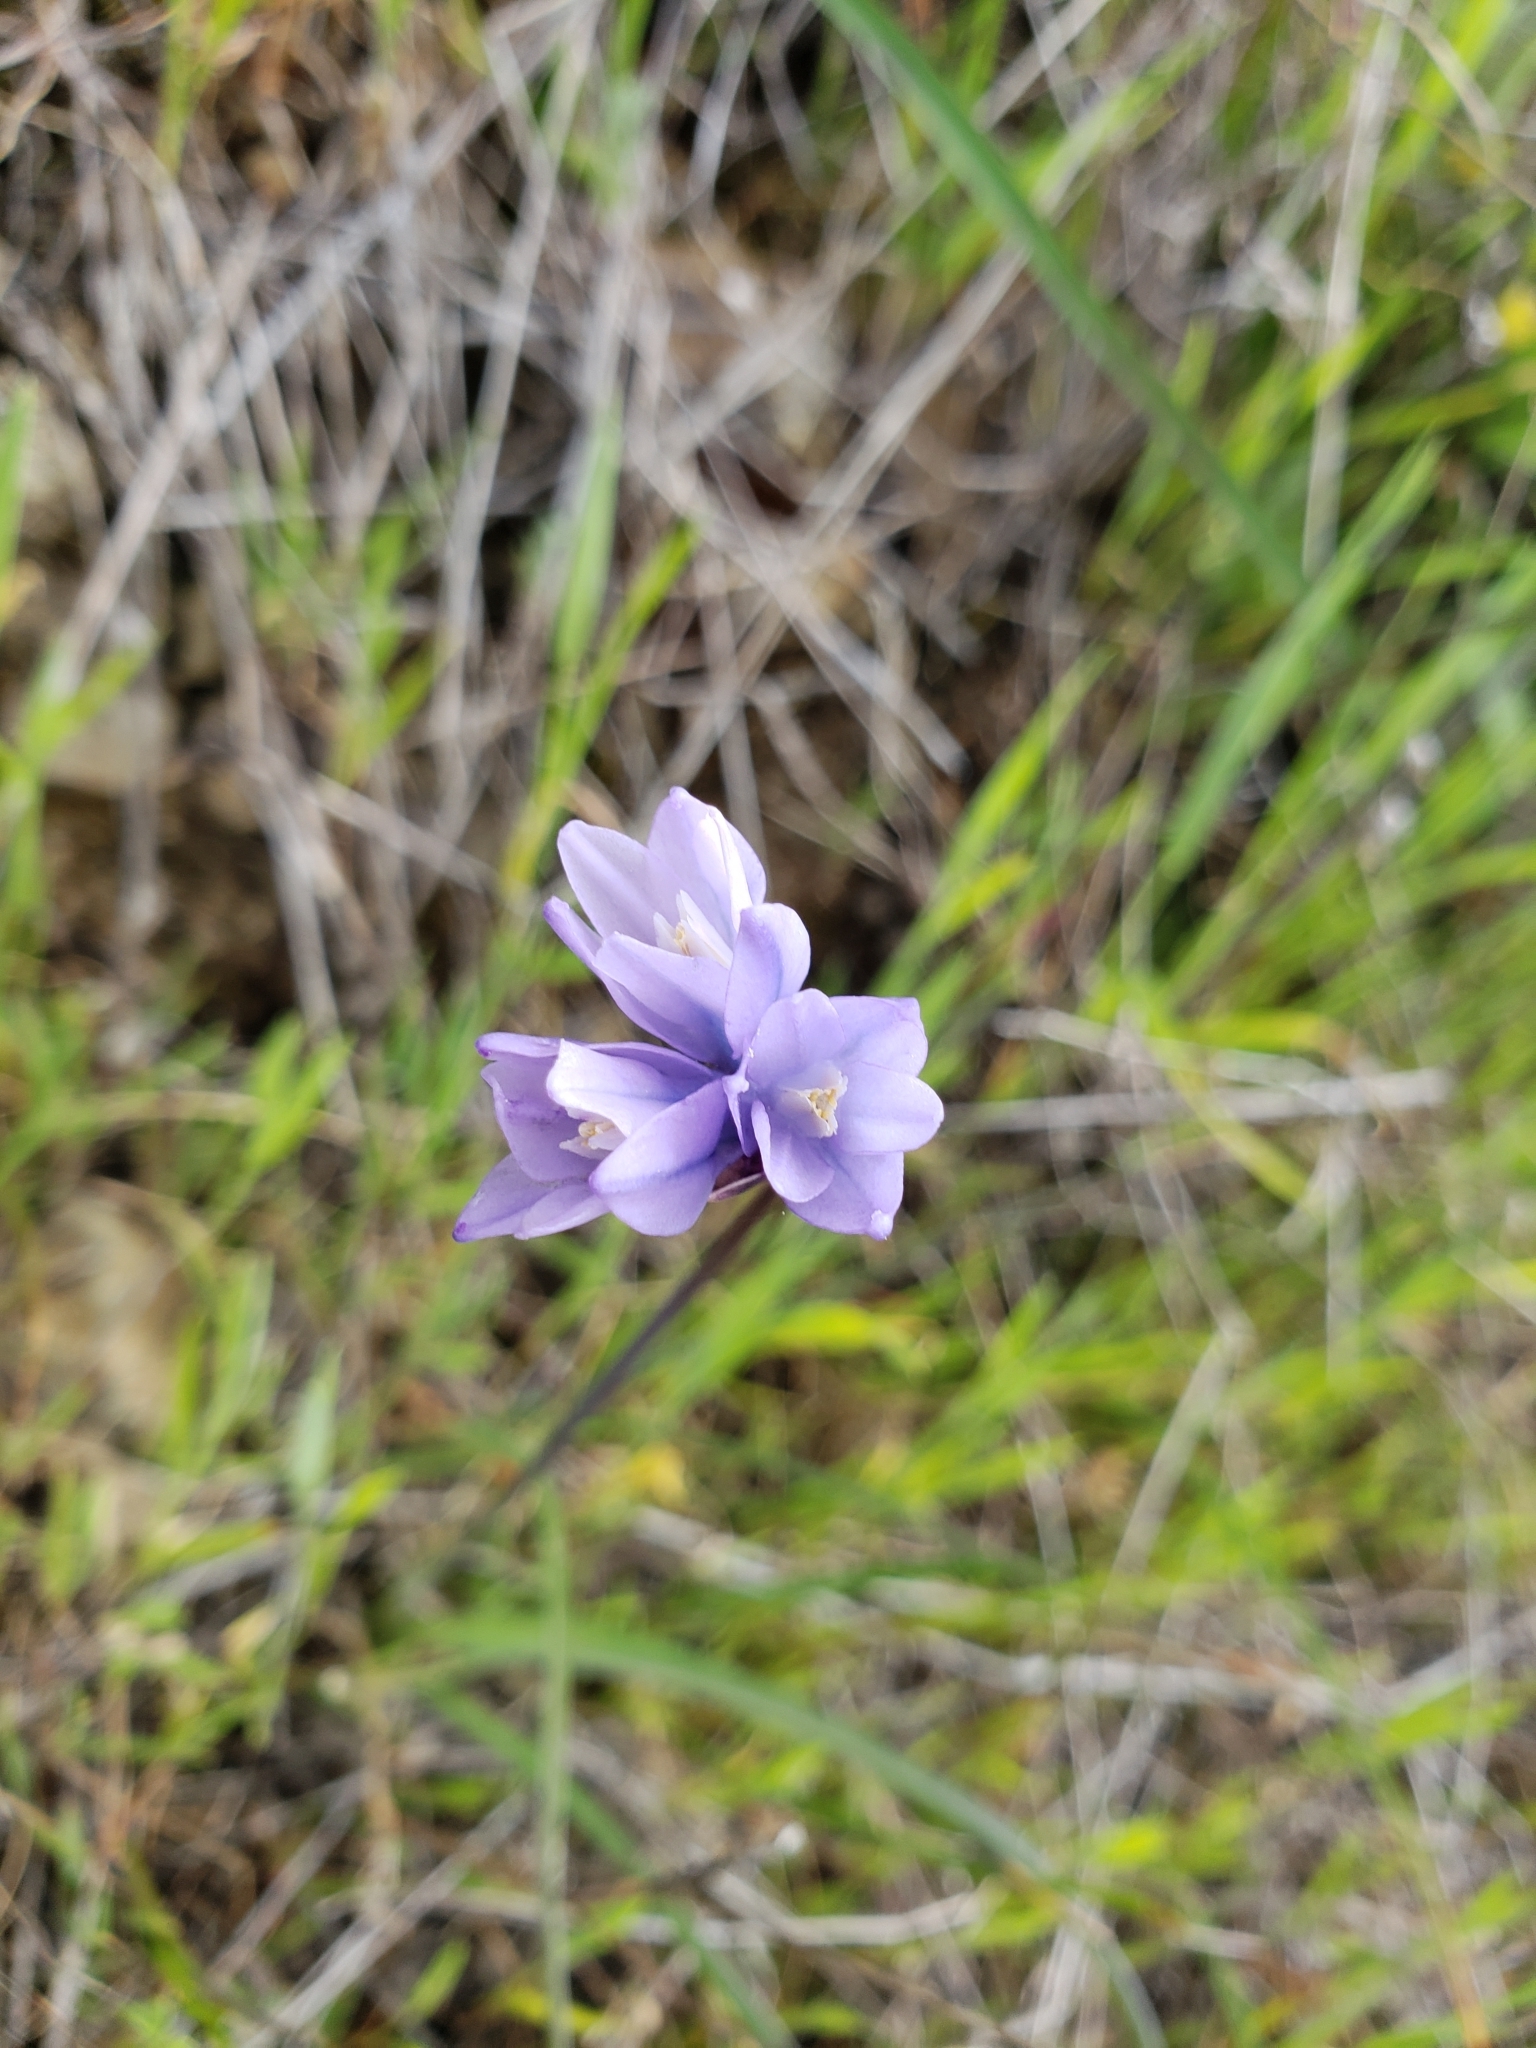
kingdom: Plantae
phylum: Tracheophyta
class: Liliopsida
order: Asparagales
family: Asparagaceae
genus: Dipterostemon
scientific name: Dipterostemon capitatus
